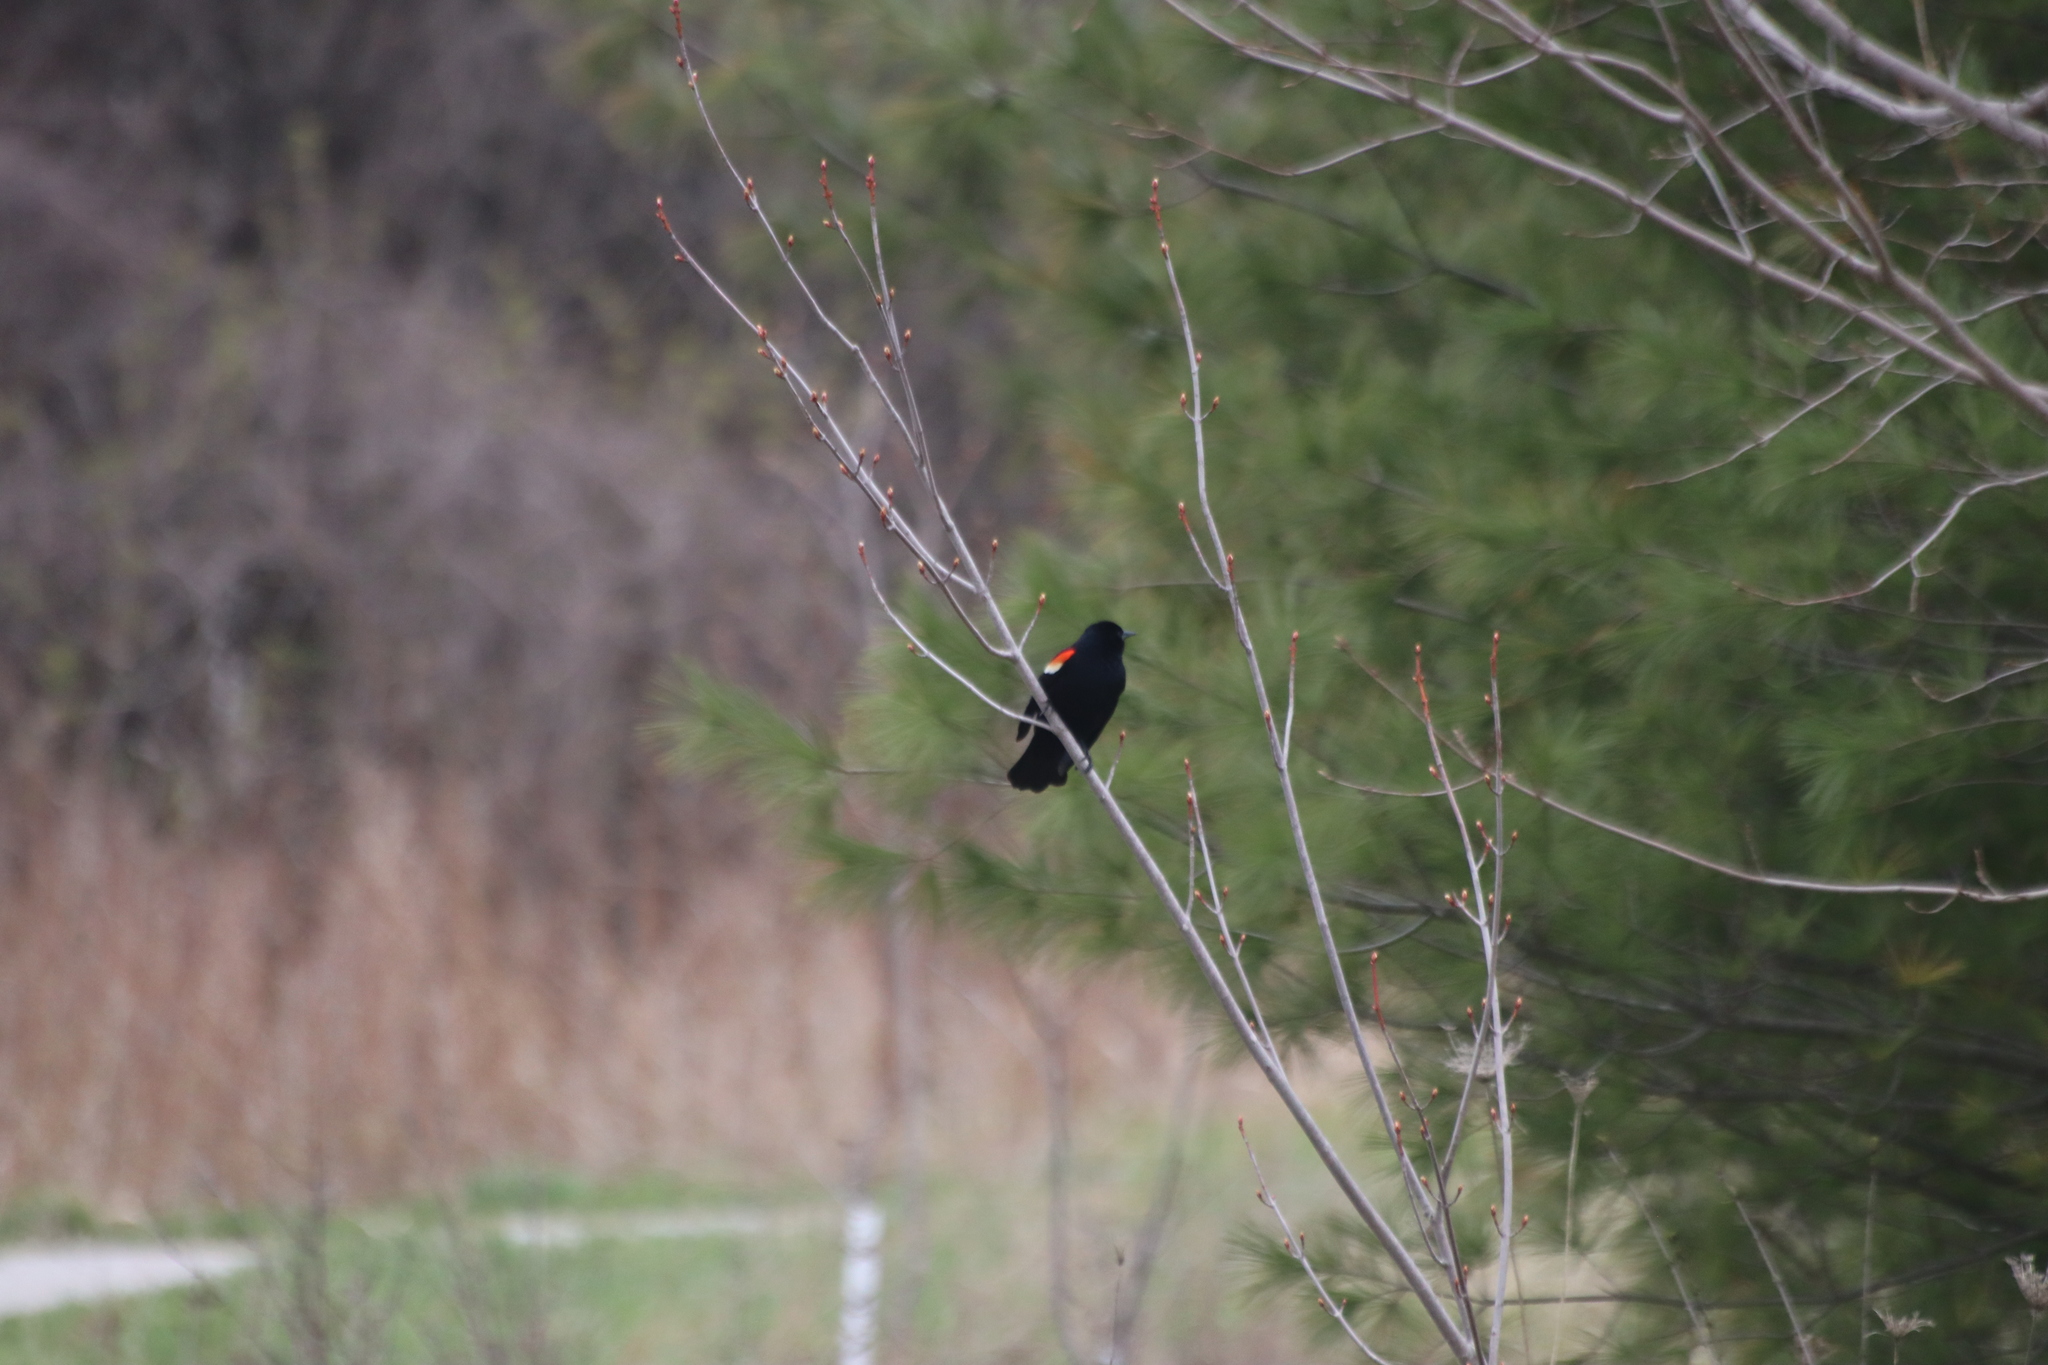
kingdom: Animalia
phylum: Chordata
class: Aves
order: Passeriformes
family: Icteridae
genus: Agelaius
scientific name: Agelaius phoeniceus
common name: Red-winged blackbird
